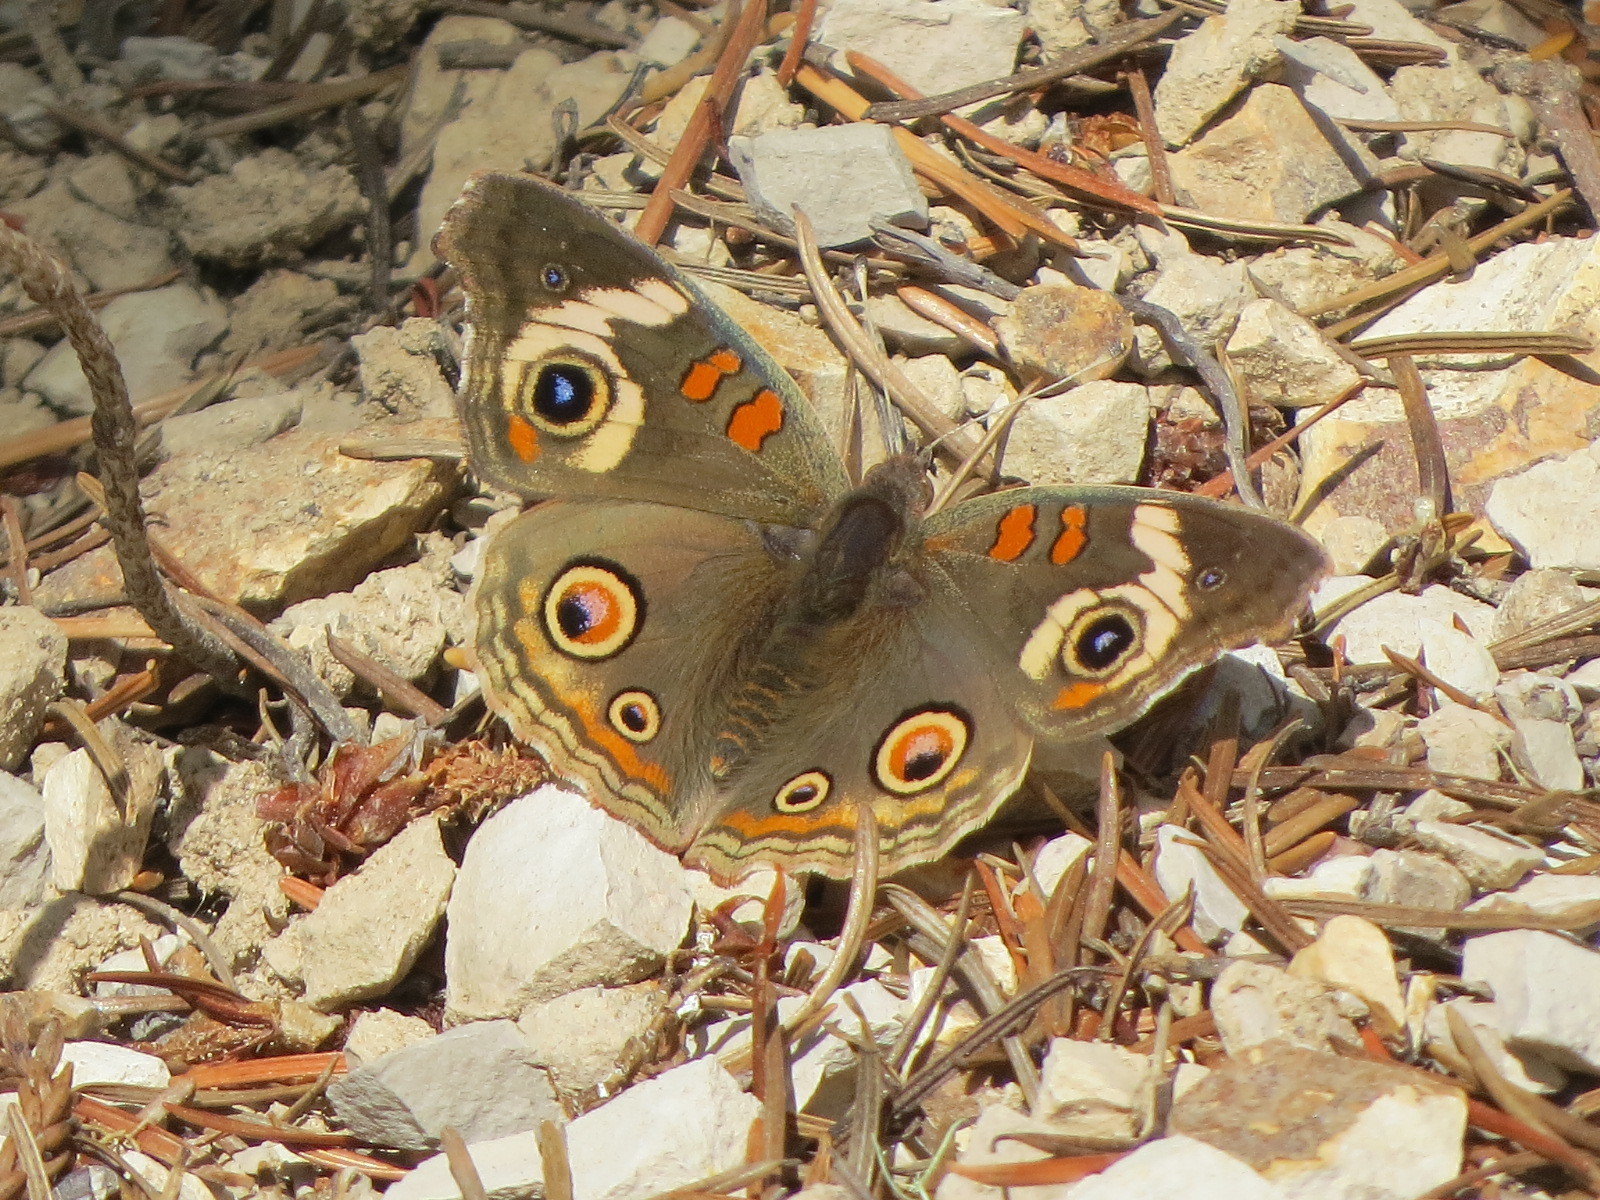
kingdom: Animalia
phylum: Arthropoda
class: Insecta
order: Lepidoptera
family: Nymphalidae
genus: Junonia
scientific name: Junonia grisea
